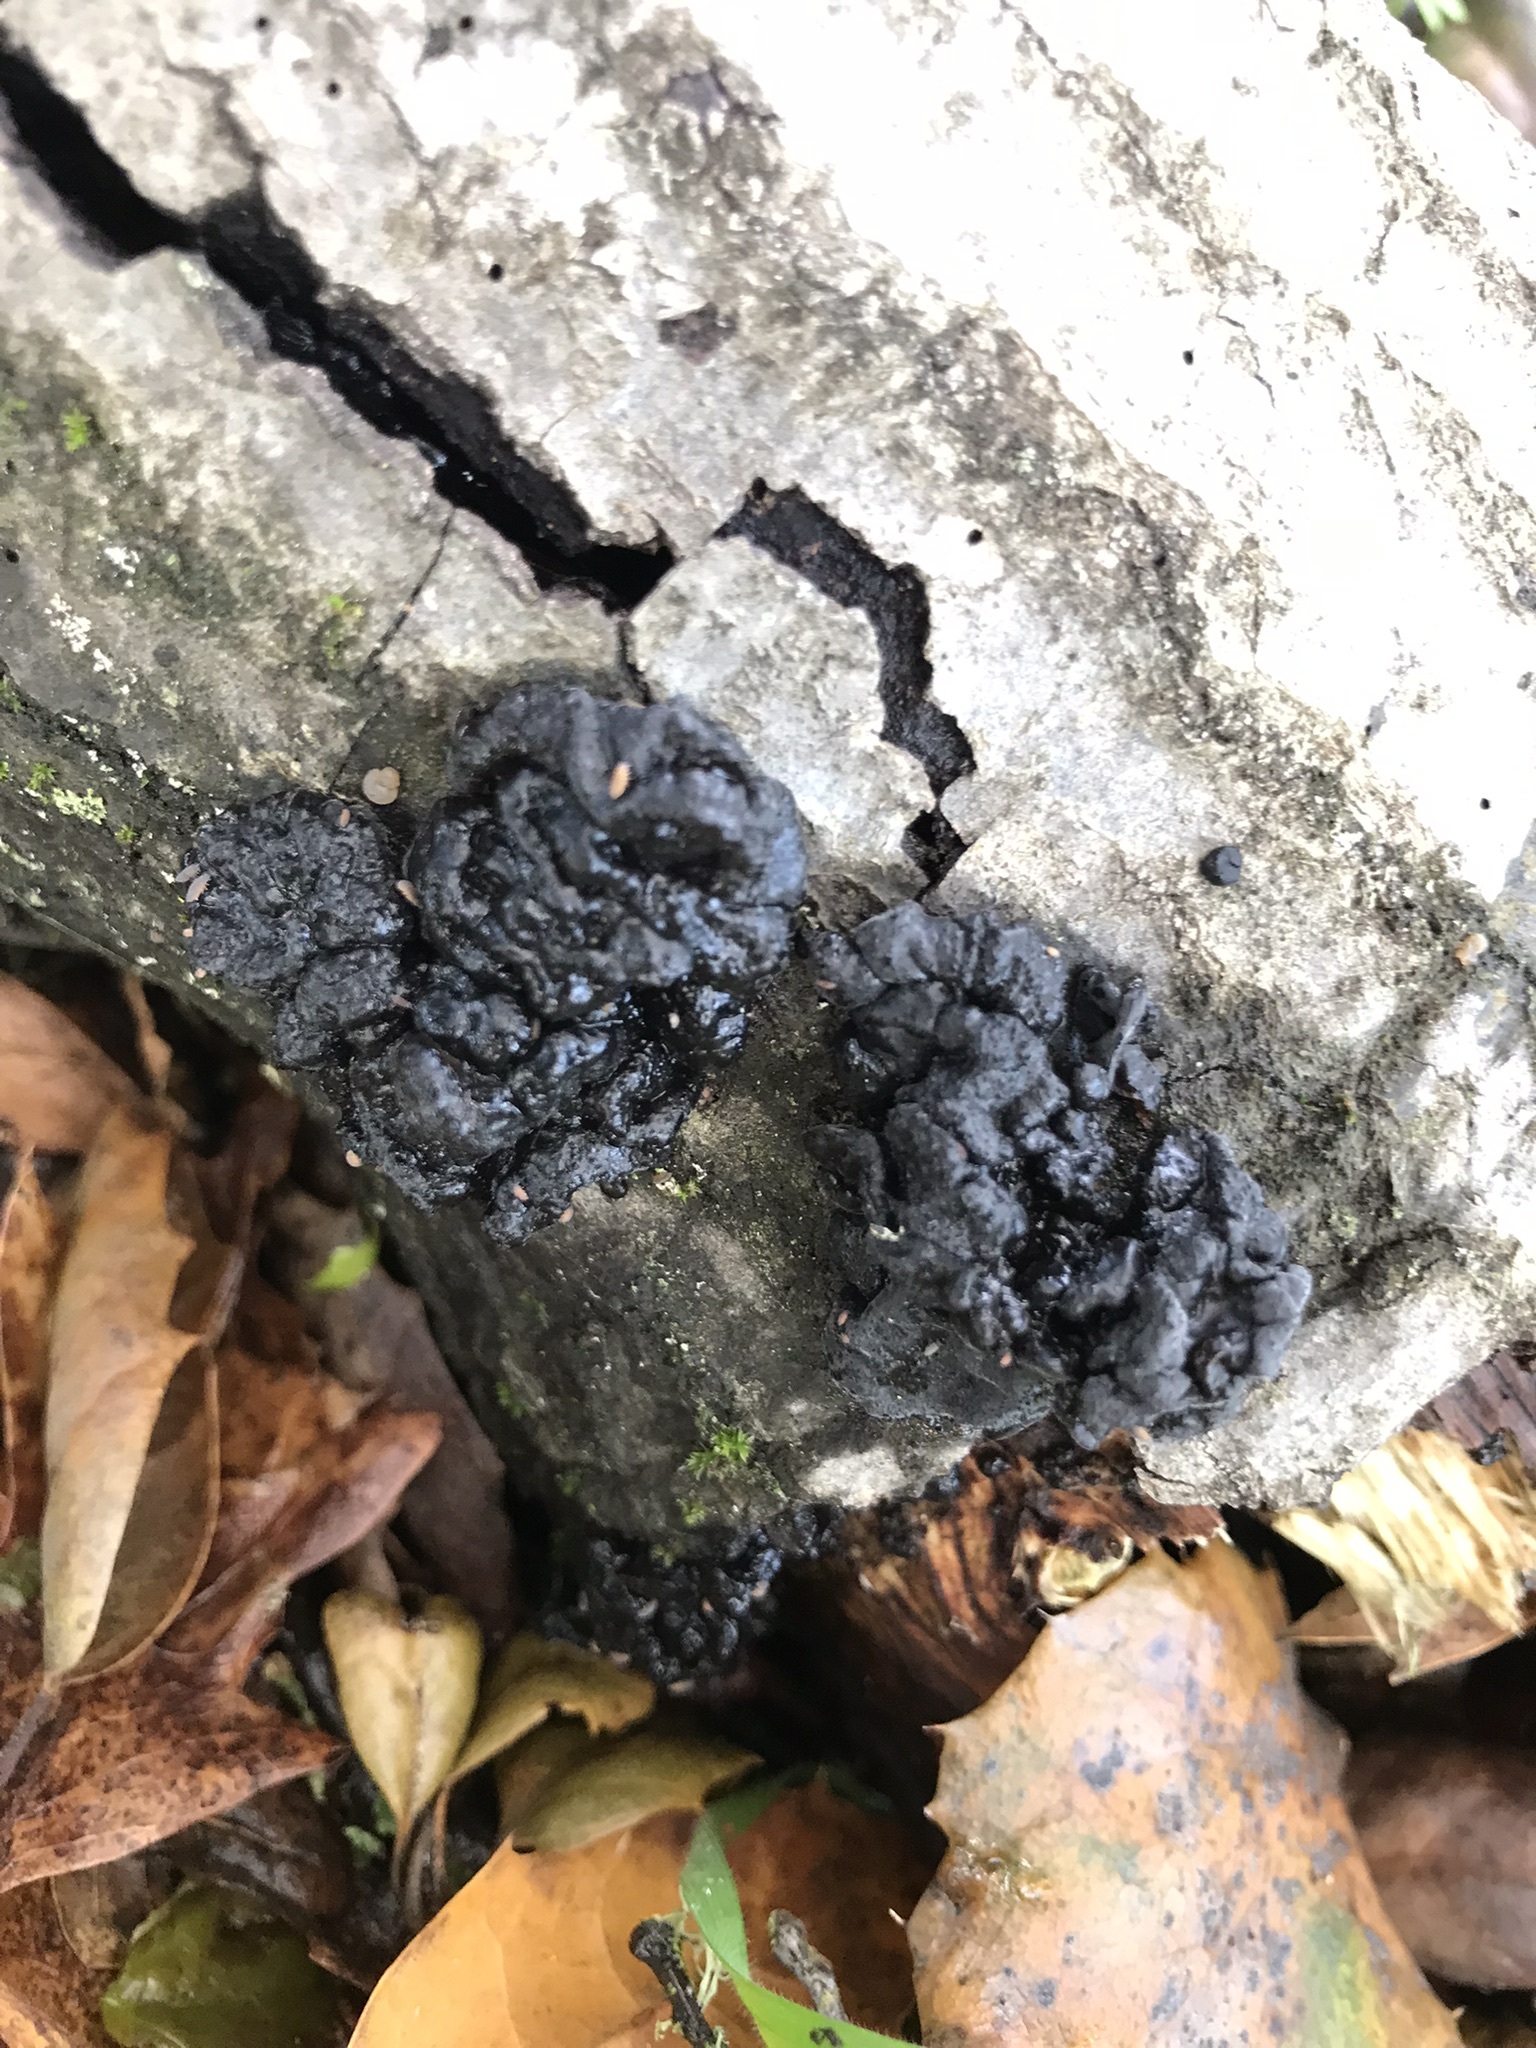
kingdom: Fungi
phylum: Basidiomycota
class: Agaricomycetes
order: Auriculariales
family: Auriculariaceae
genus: Exidia
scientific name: Exidia glandulosa
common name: Witches' butter
